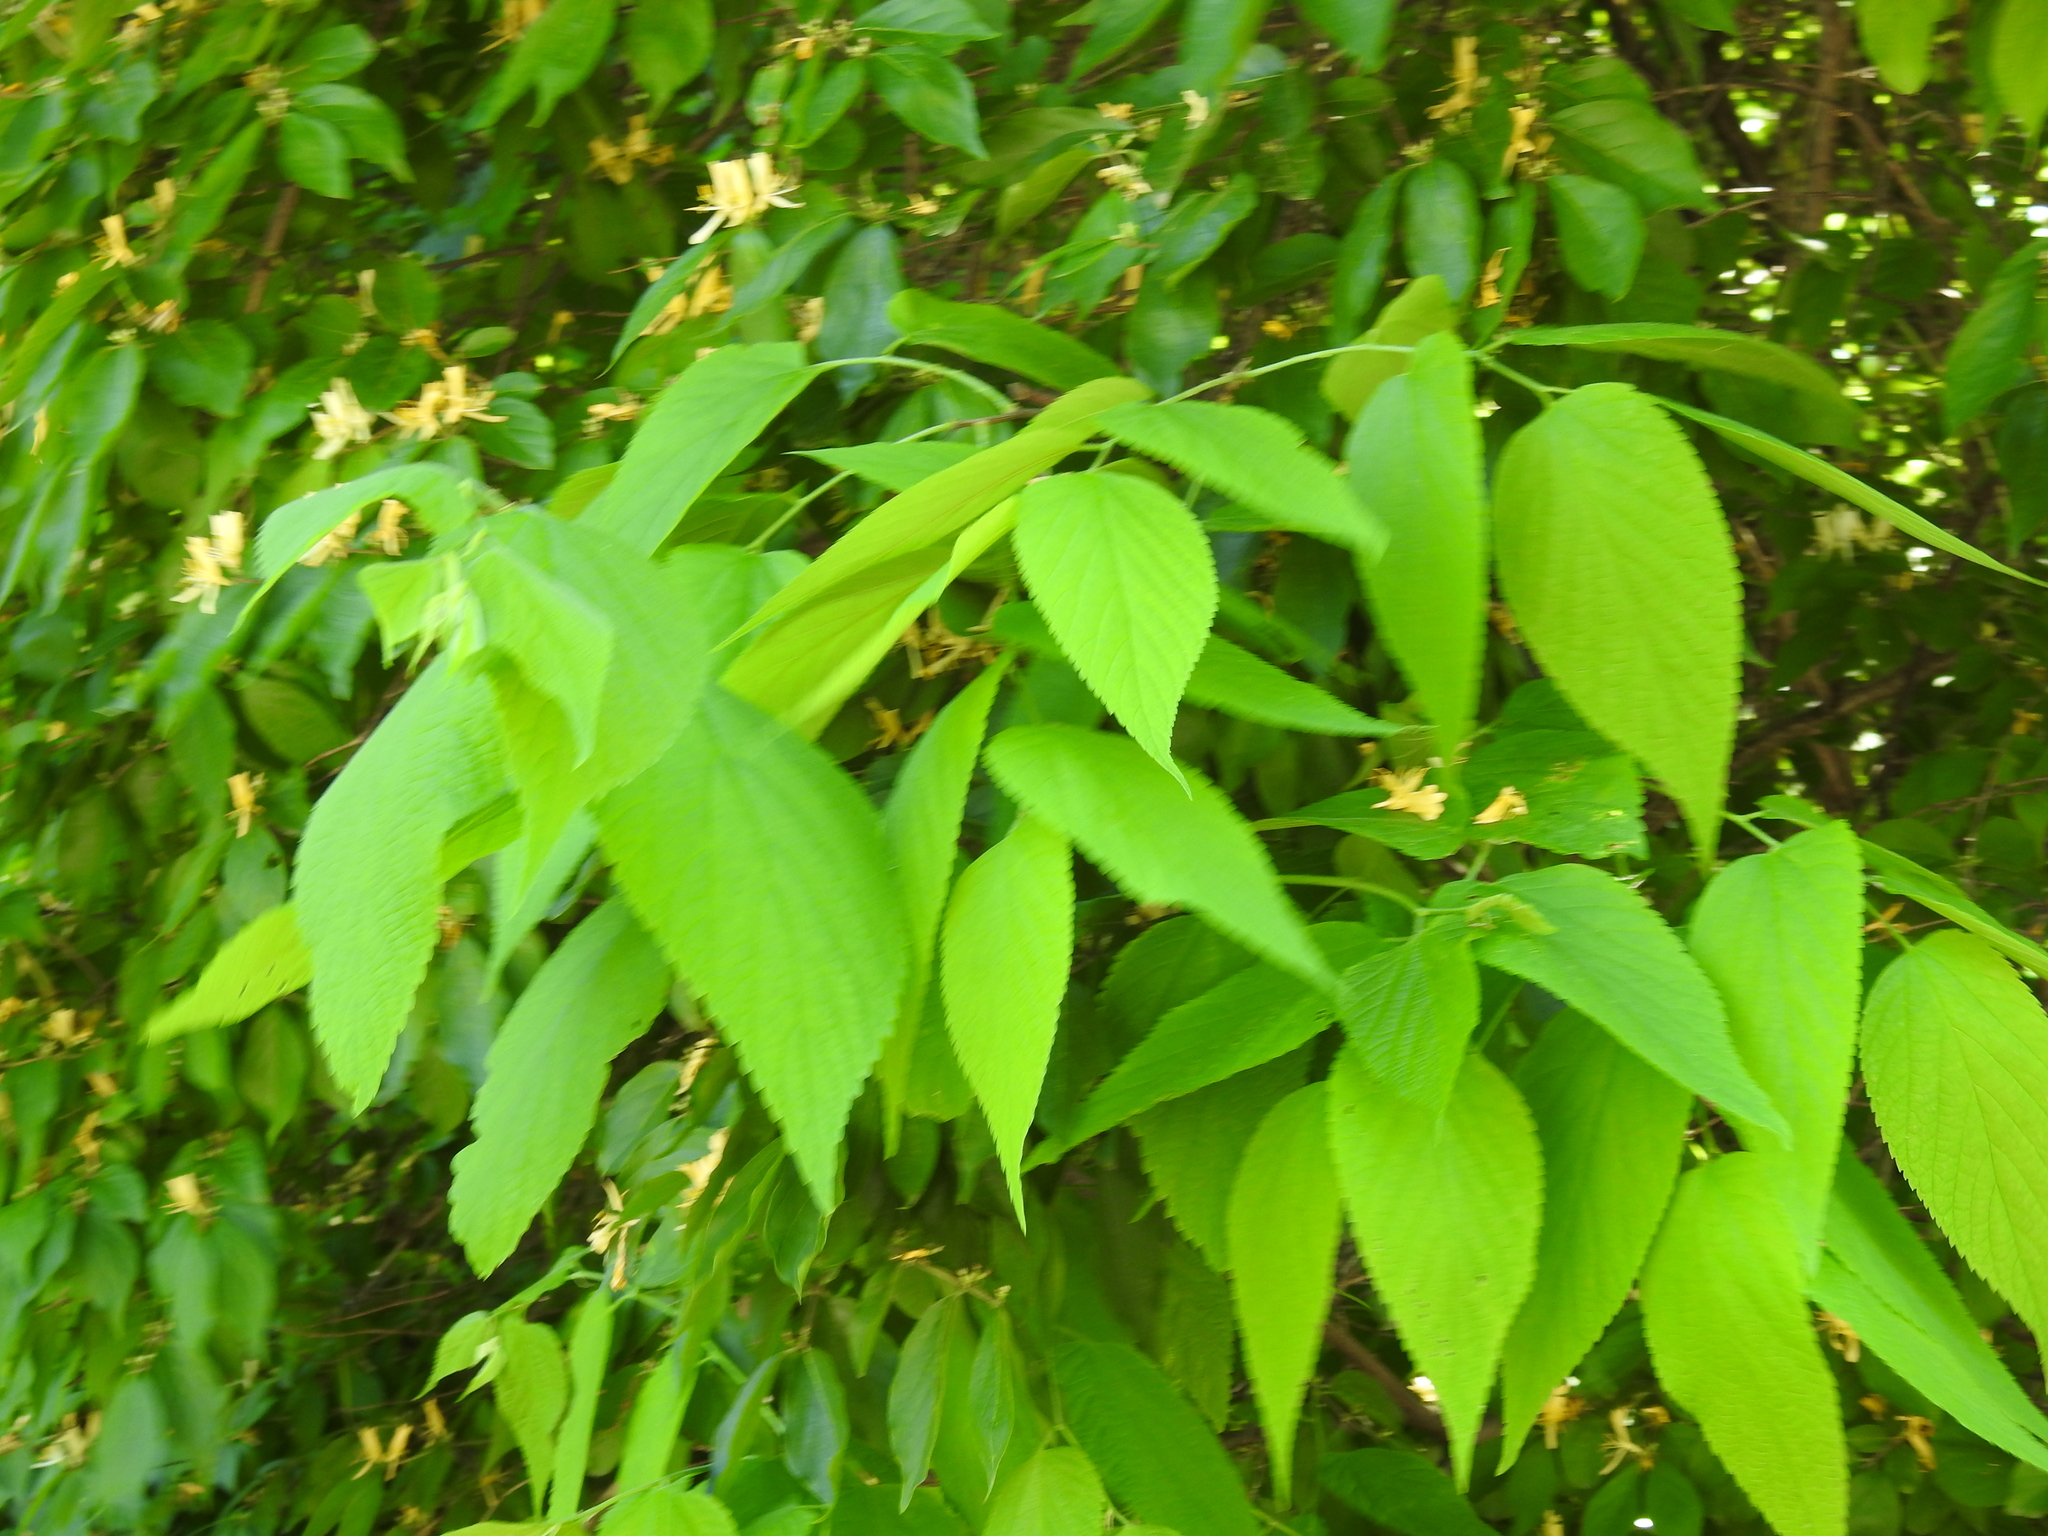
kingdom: Plantae
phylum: Tracheophyta
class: Magnoliopsida
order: Rosales
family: Cannabaceae
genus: Celtis
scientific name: Celtis occidentalis
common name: Common hackberry
